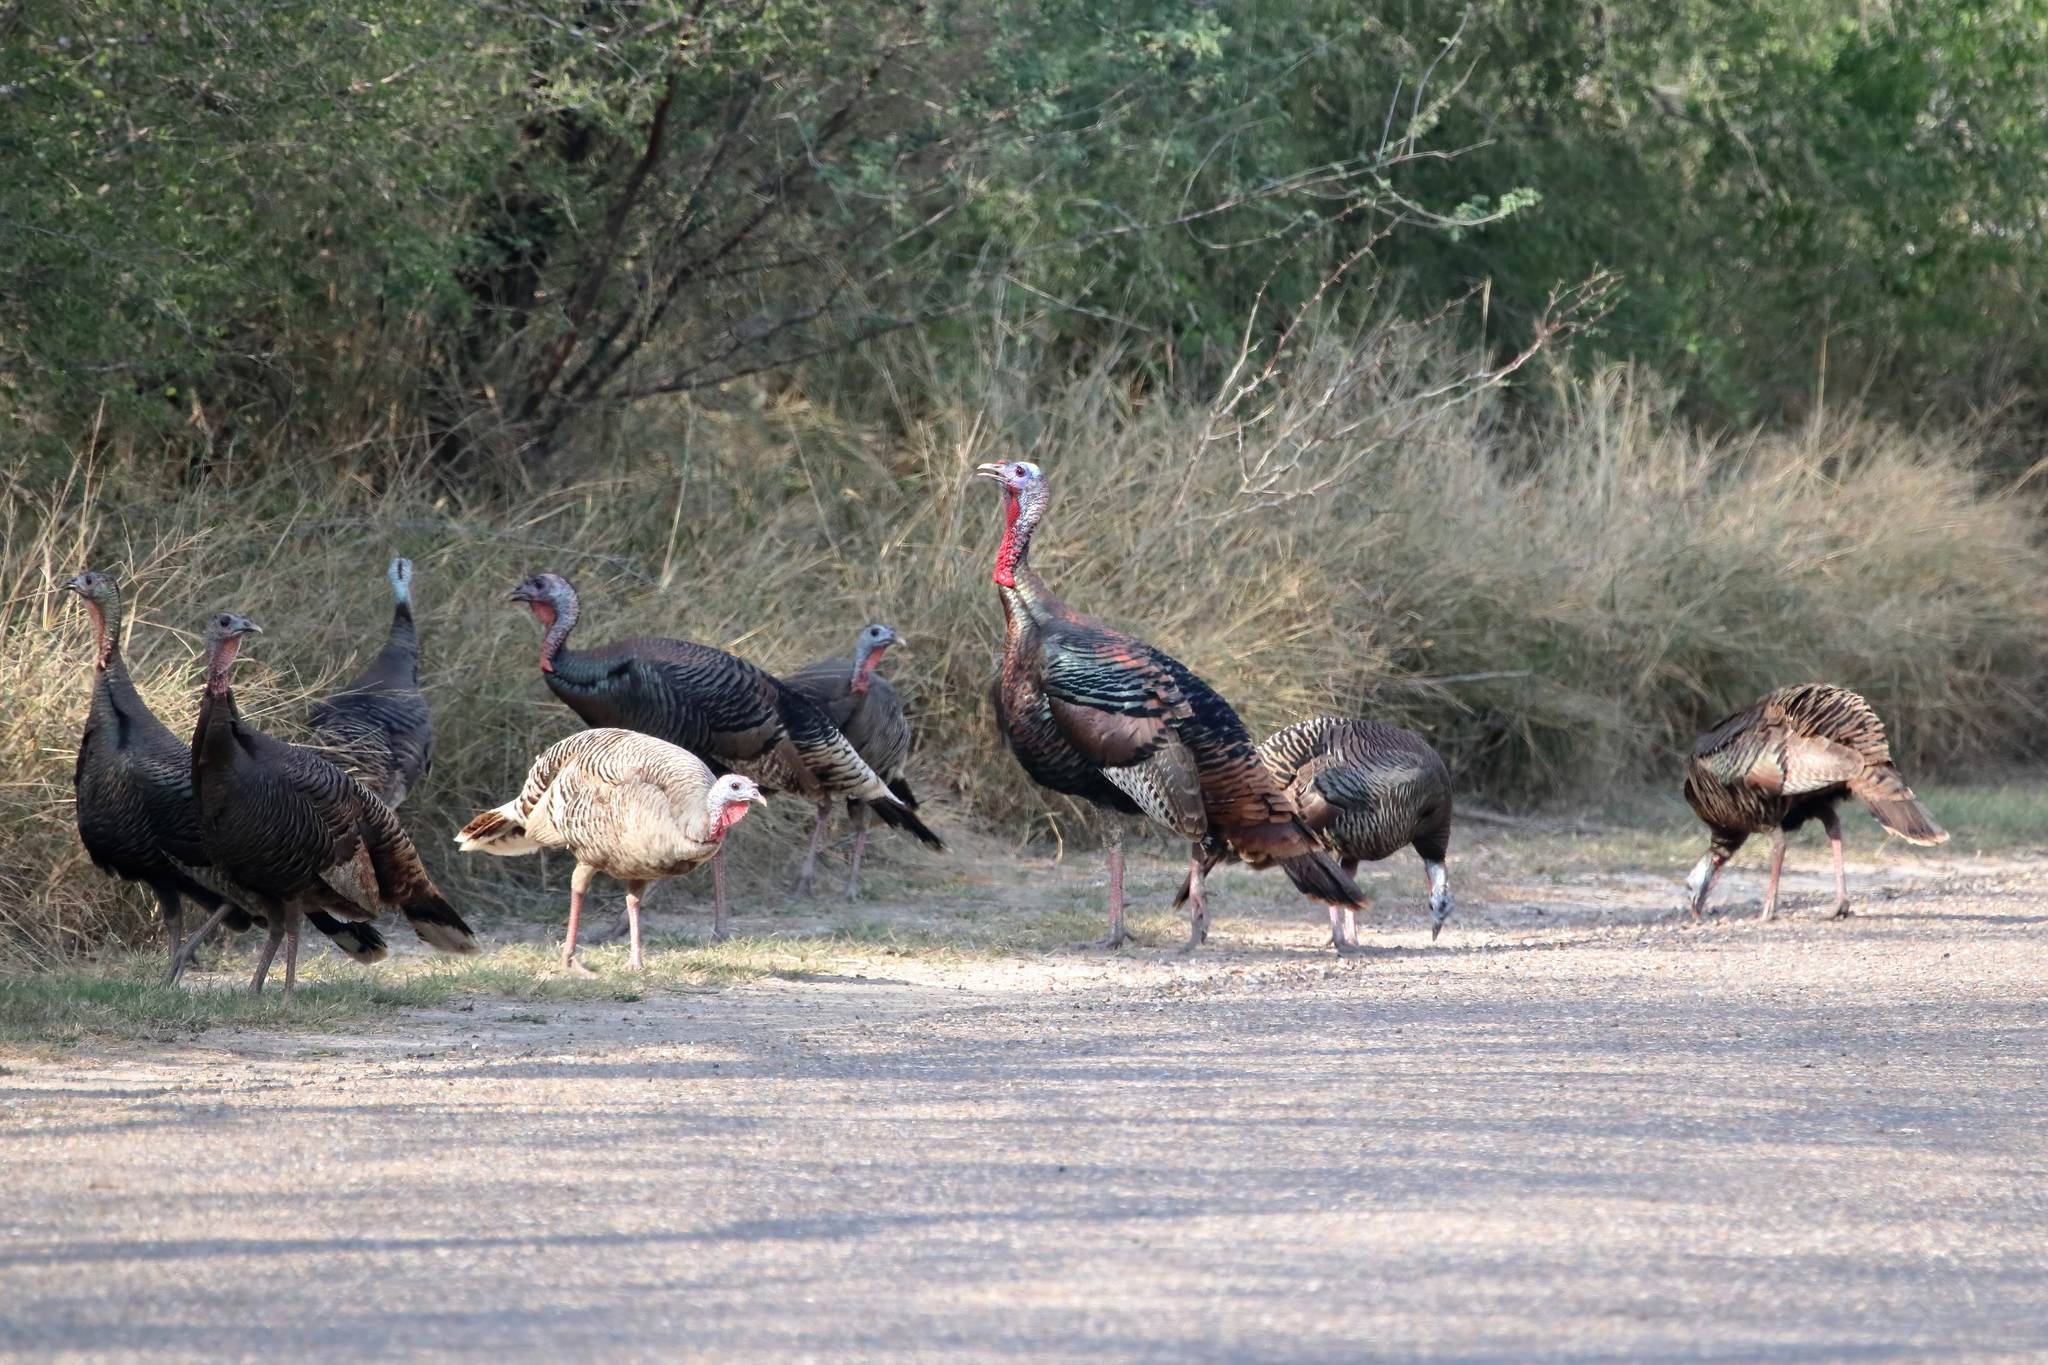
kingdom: Animalia
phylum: Chordata
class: Aves
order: Galliformes
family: Phasianidae
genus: Meleagris
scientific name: Meleagris gallopavo
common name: Wild turkey
